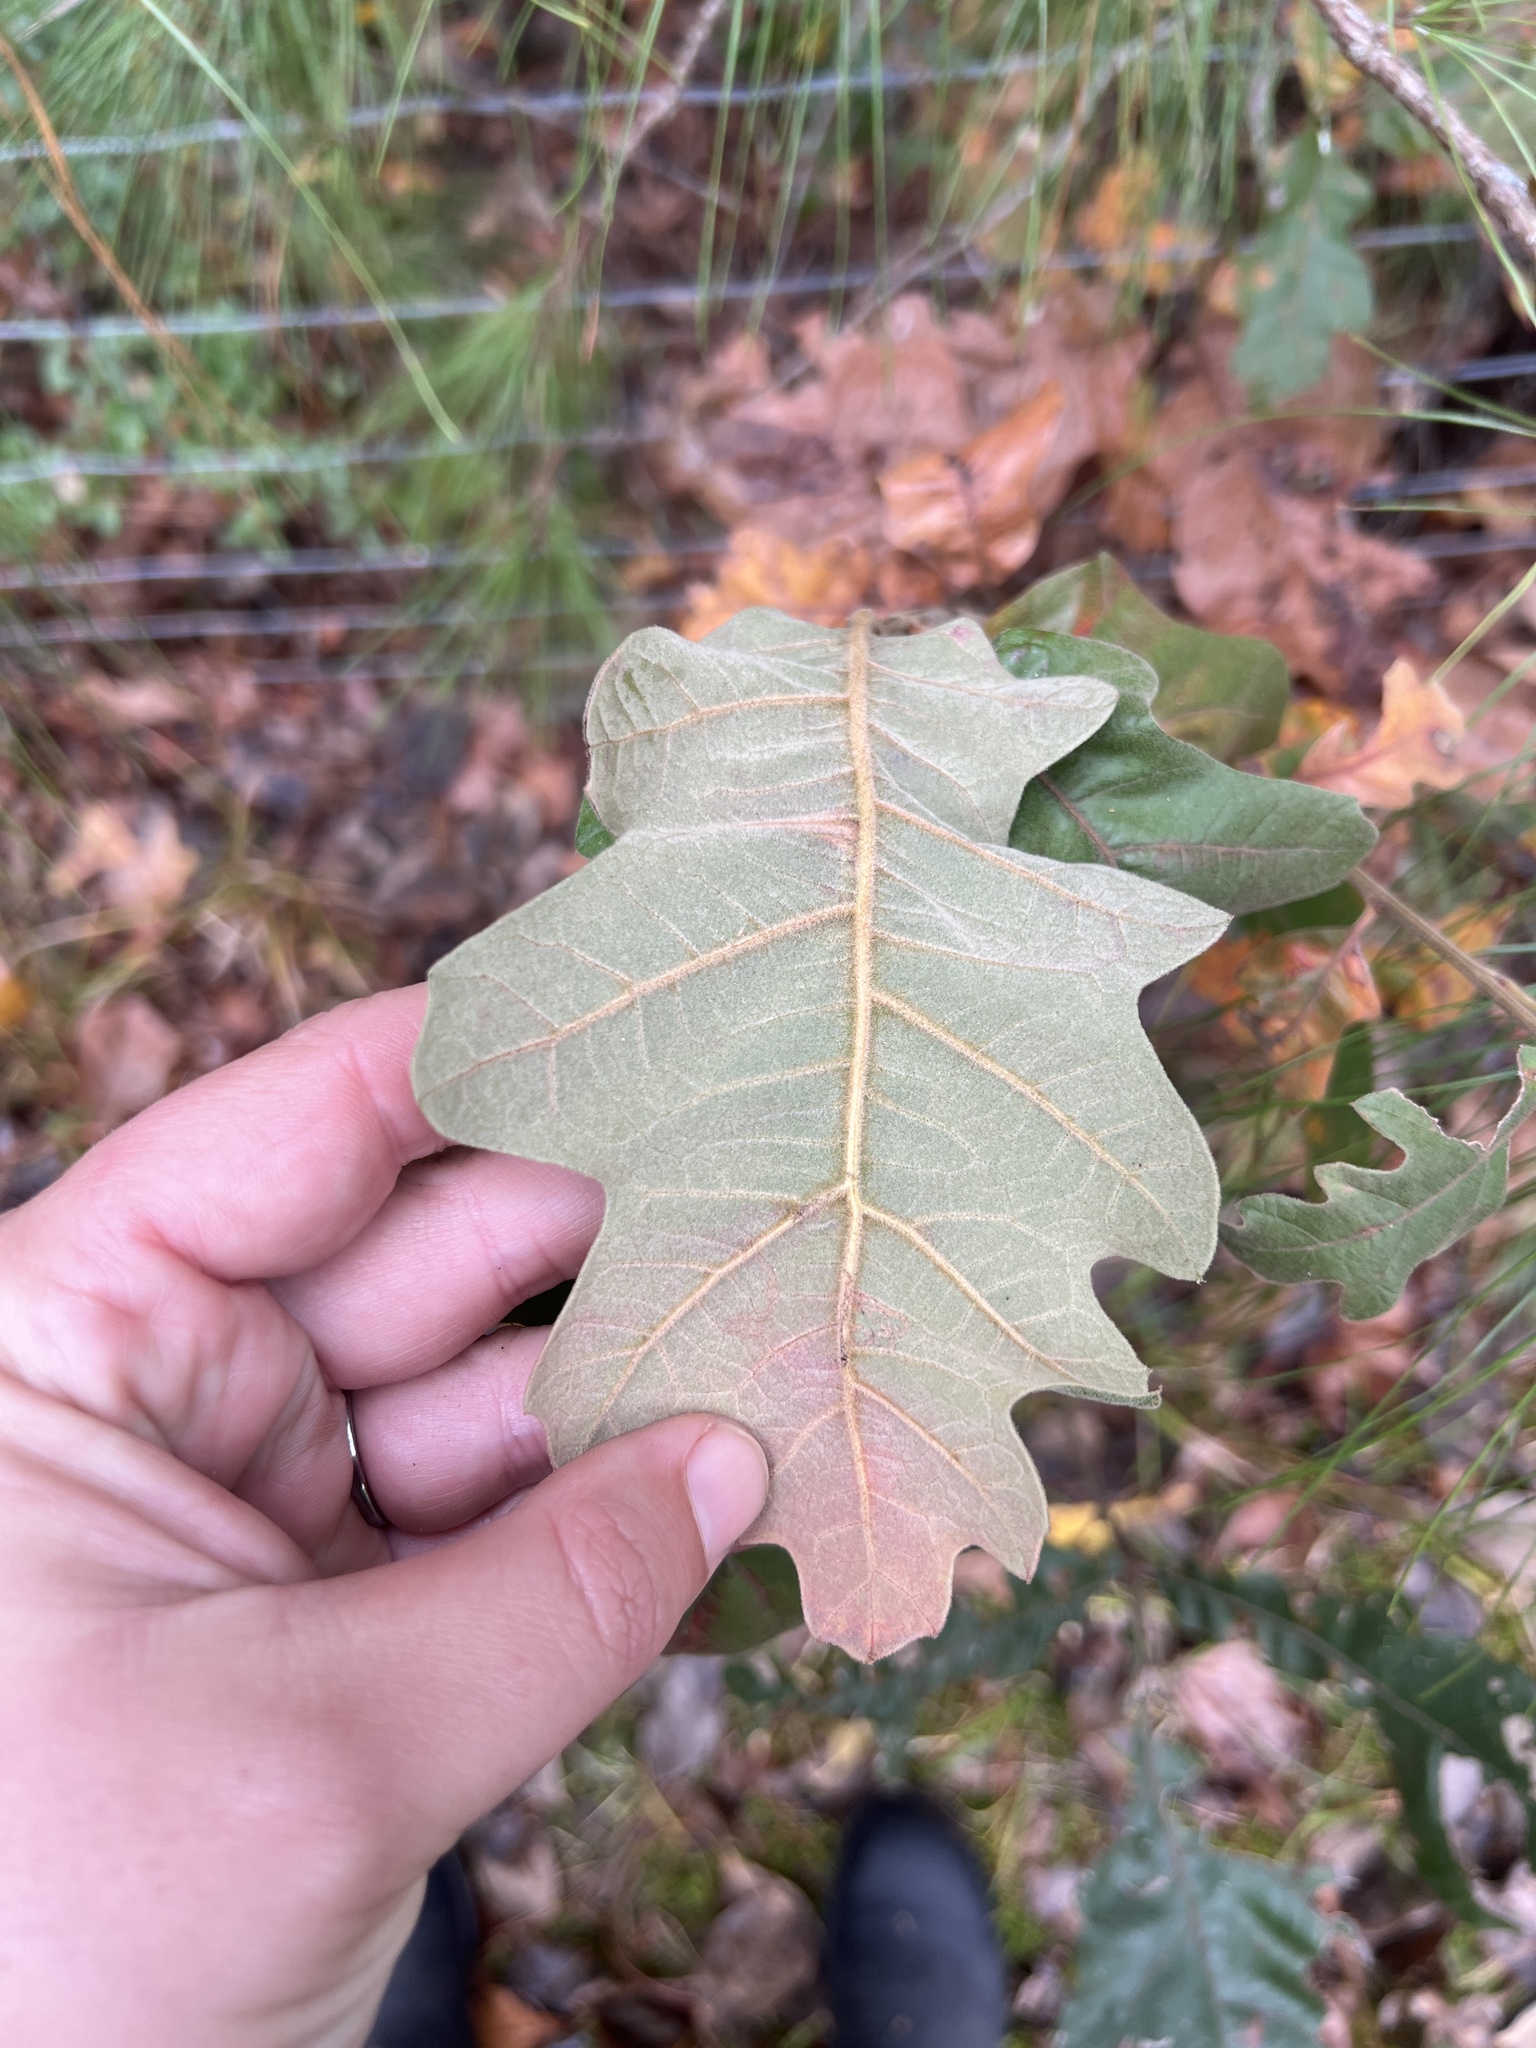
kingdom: Plantae
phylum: Tracheophyta
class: Magnoliopsida
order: Fagales
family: Fagaceae
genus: Quercus
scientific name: Quercus velutina
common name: Black oak
